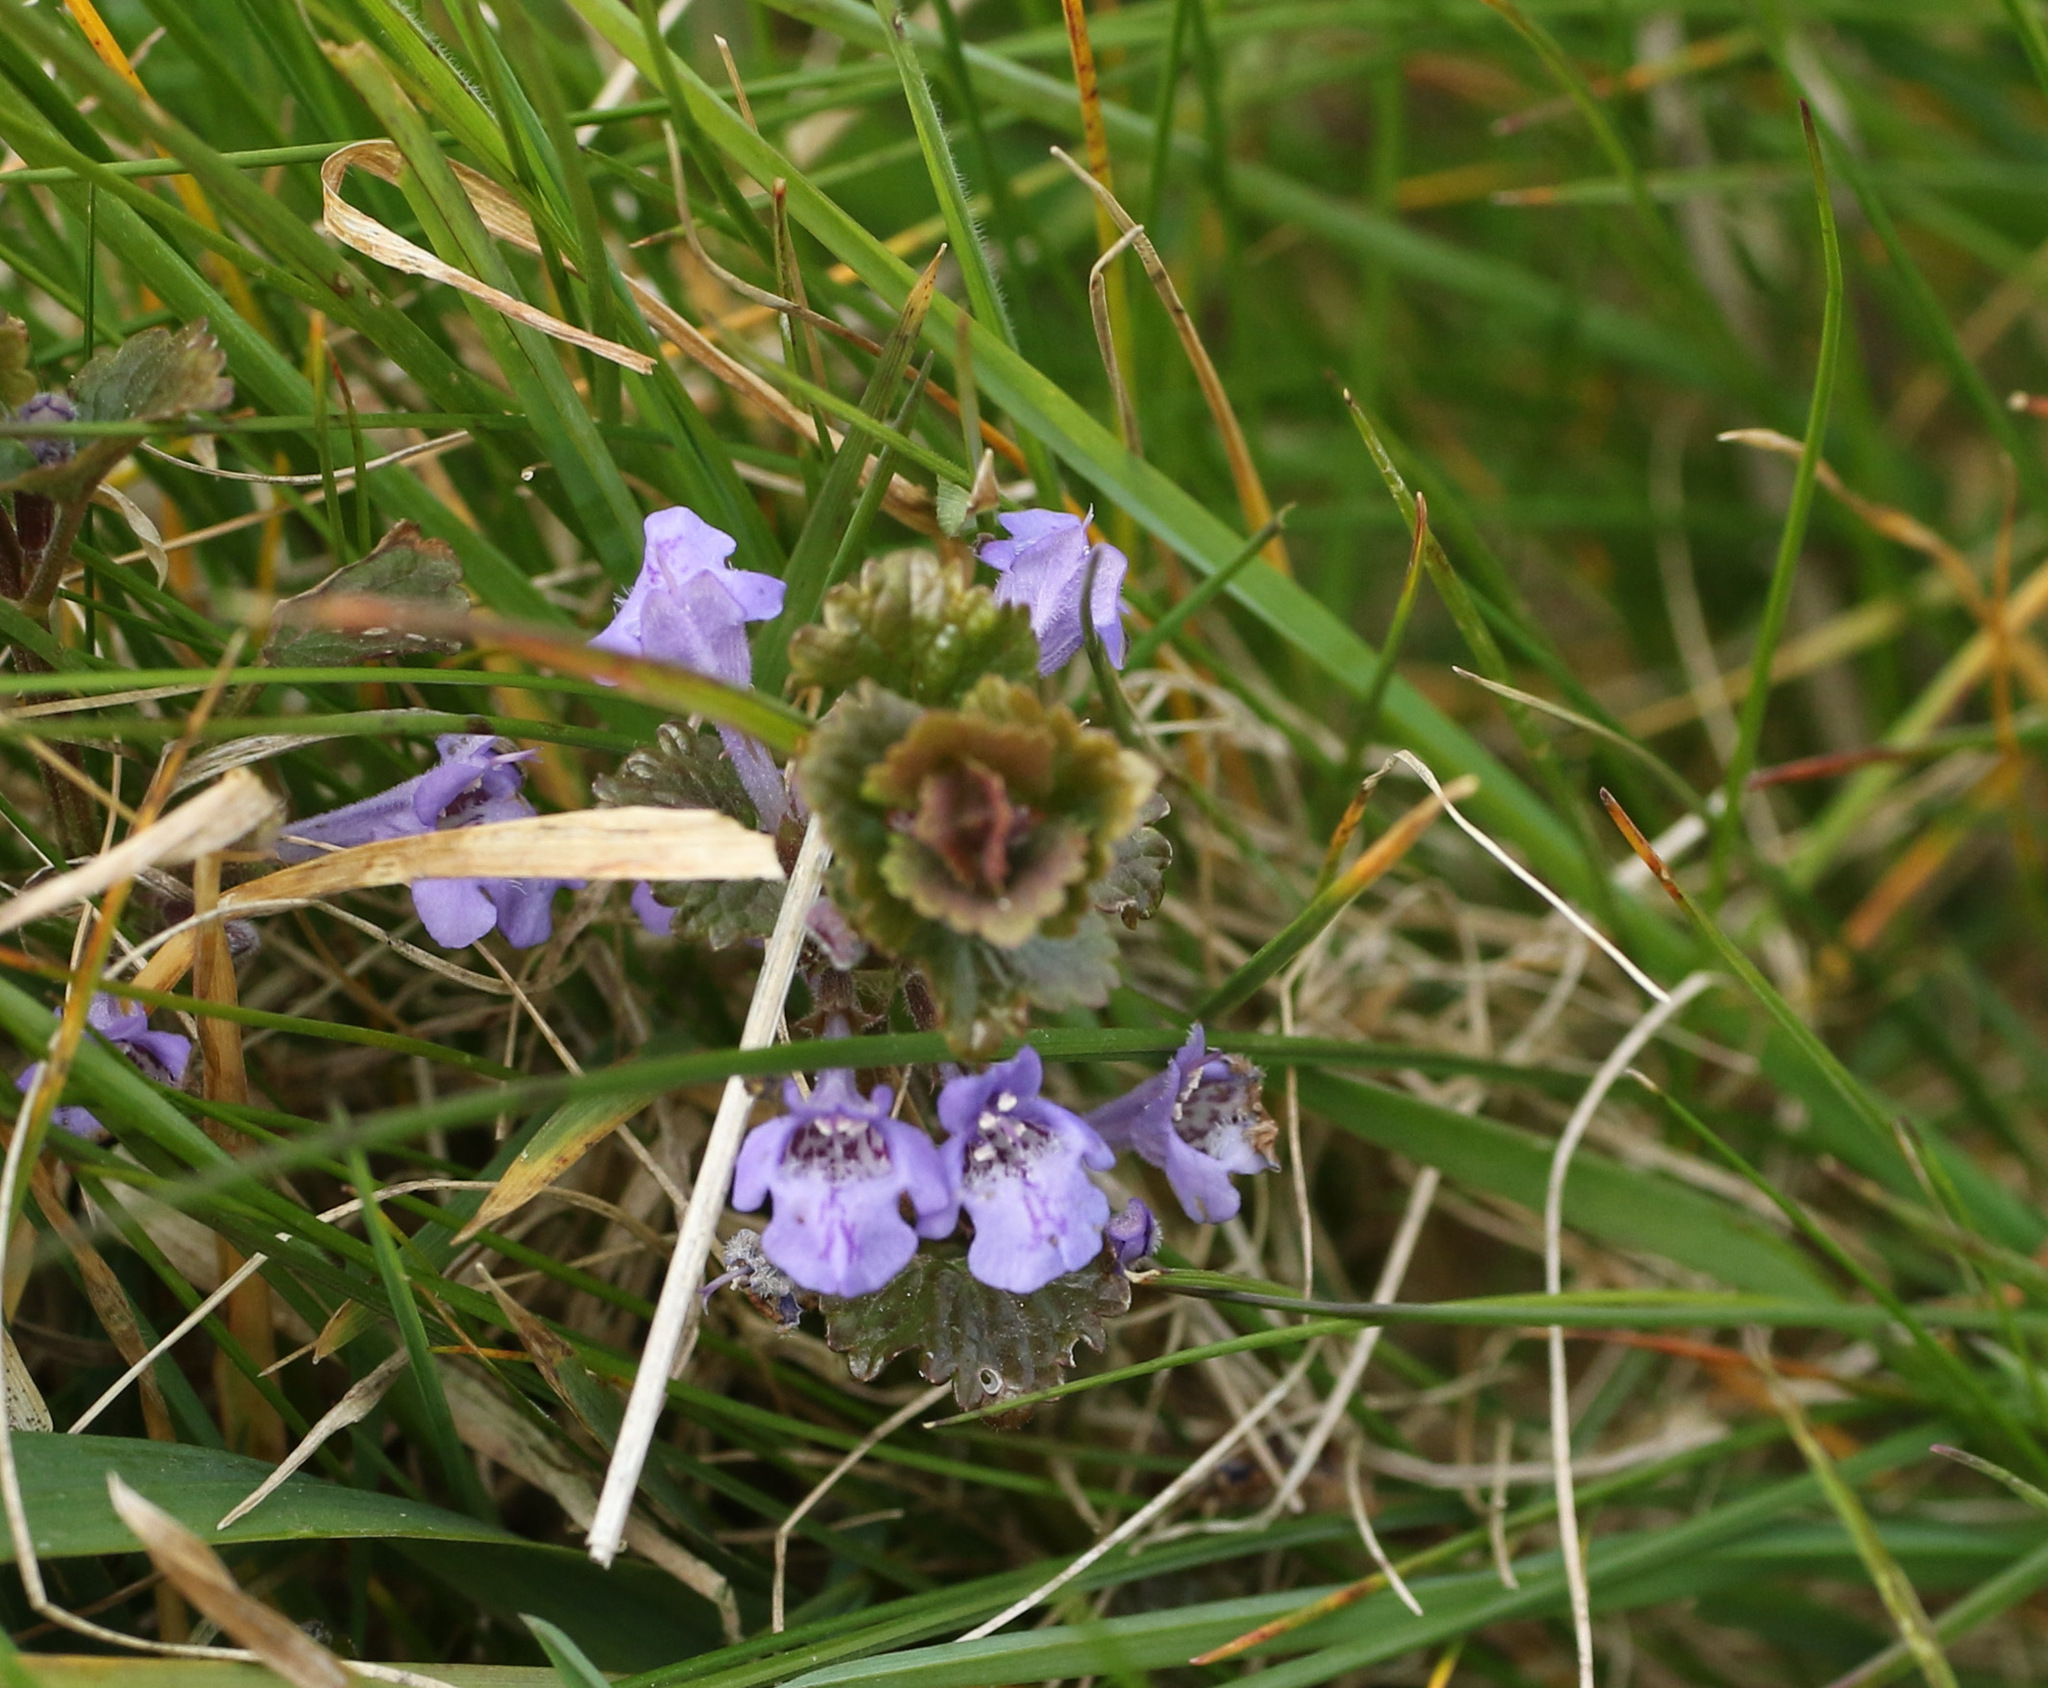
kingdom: Plantae
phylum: Tracheophyta
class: Magnoliopsida
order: Lamiales
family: Lamiaceae
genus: Glechoma
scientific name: Glechoma hederacea
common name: Ground ivy
